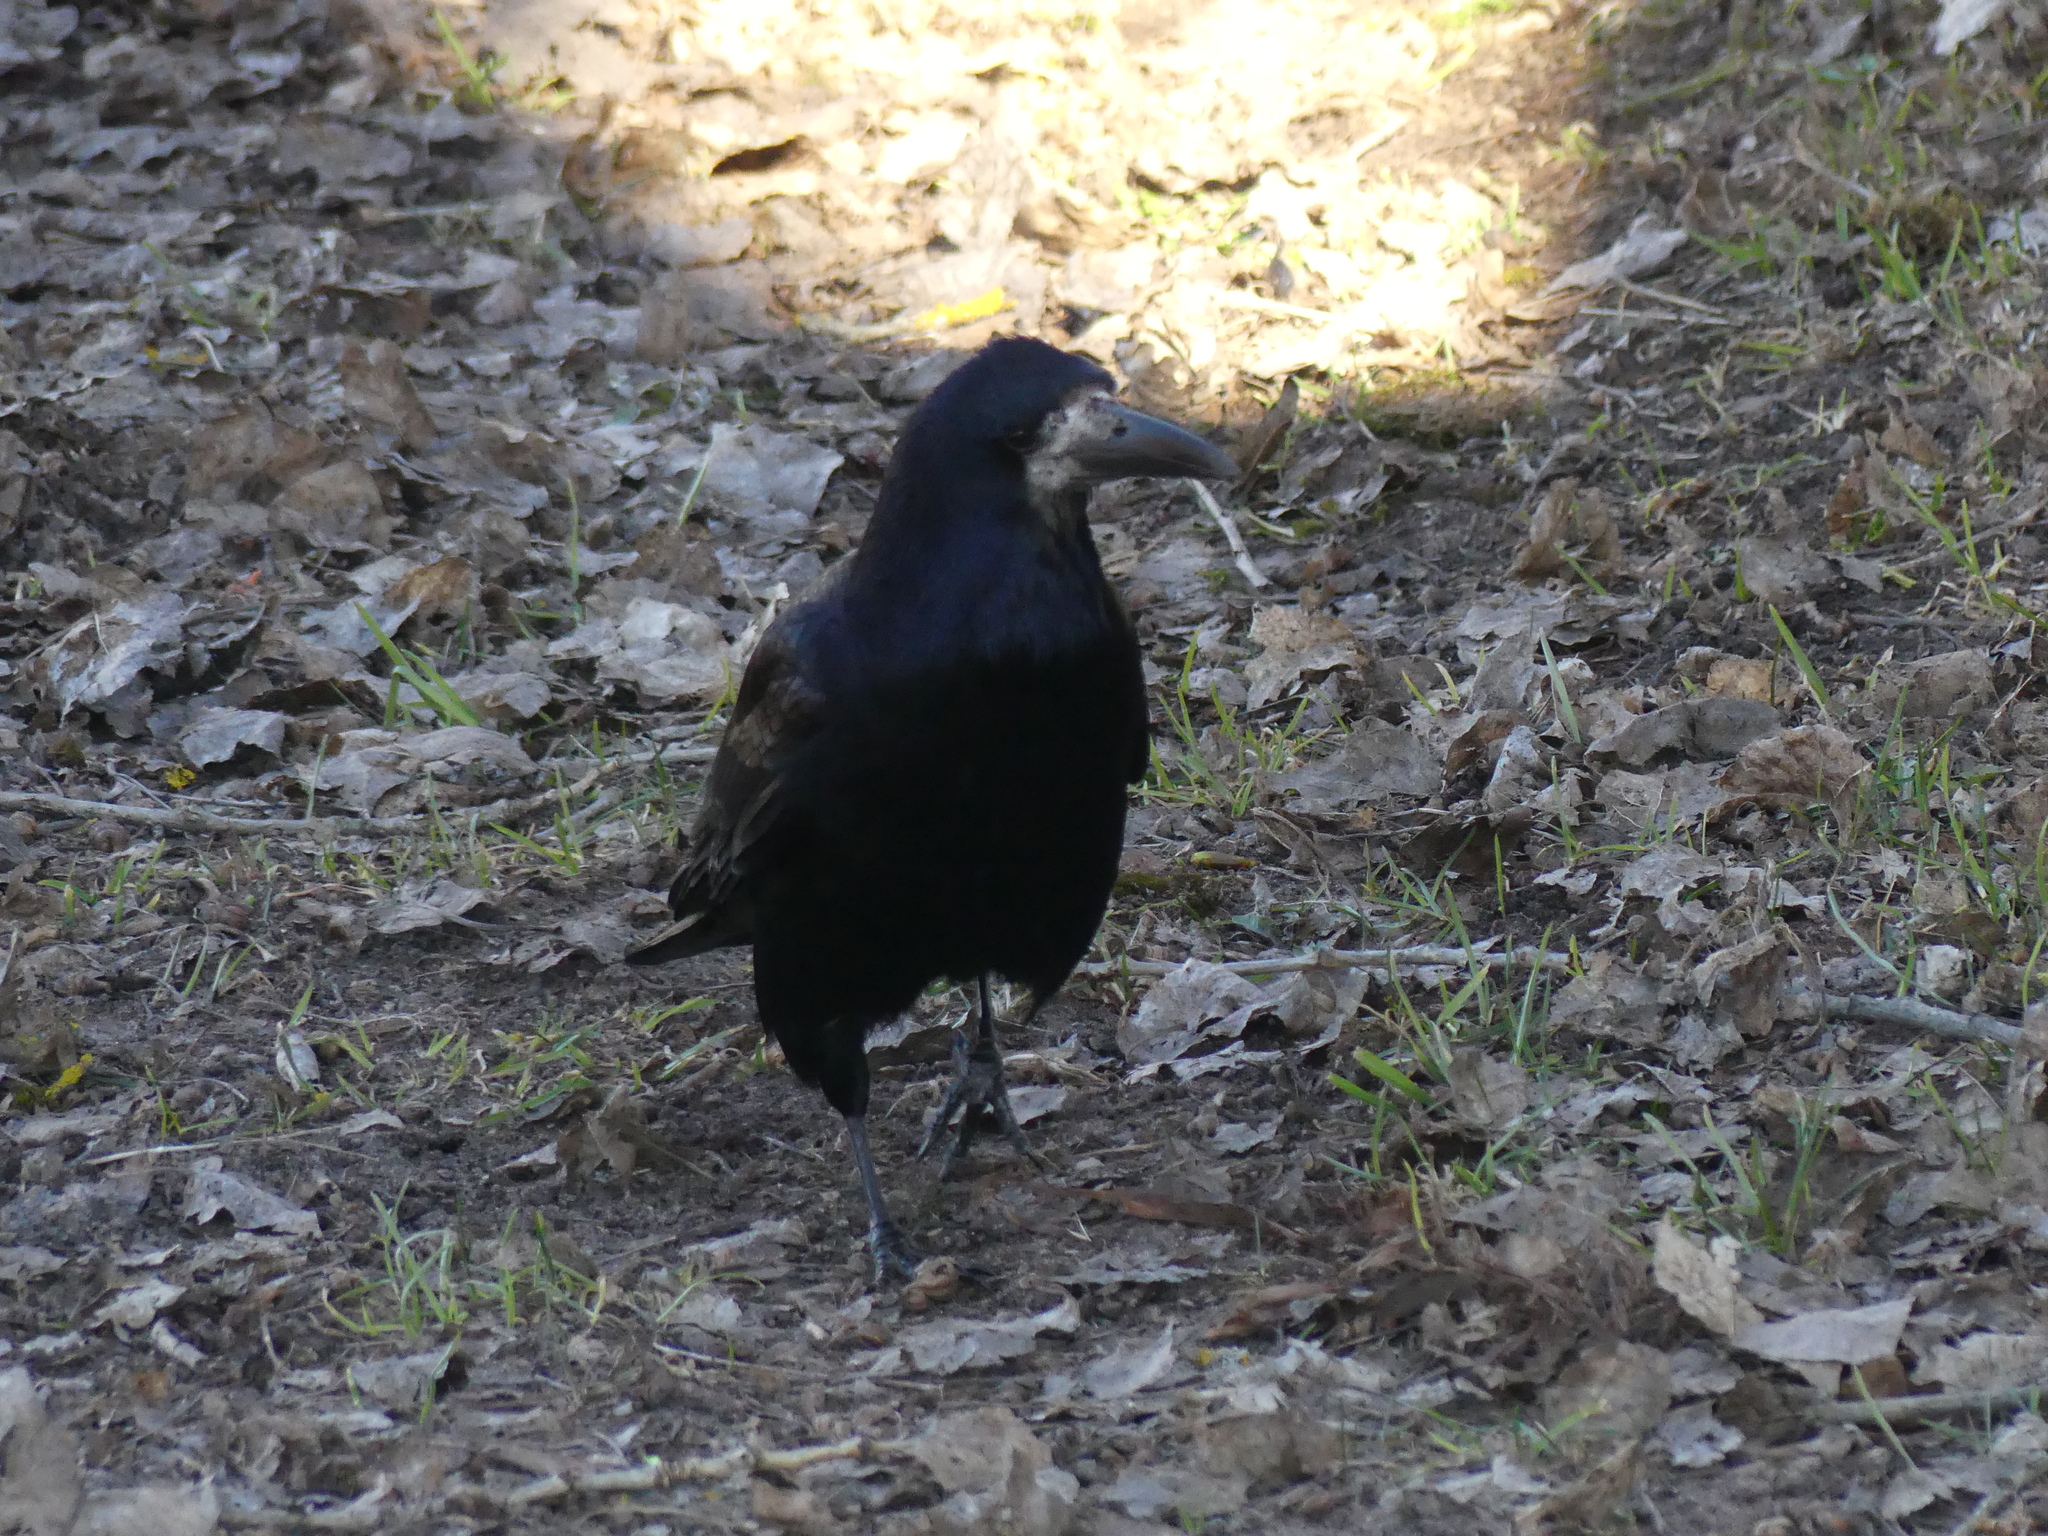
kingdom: Animalia
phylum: Chordata
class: Aves
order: Passeriformes
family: Corvidae
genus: Corvus
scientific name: Corvus frugilegus
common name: Rook
